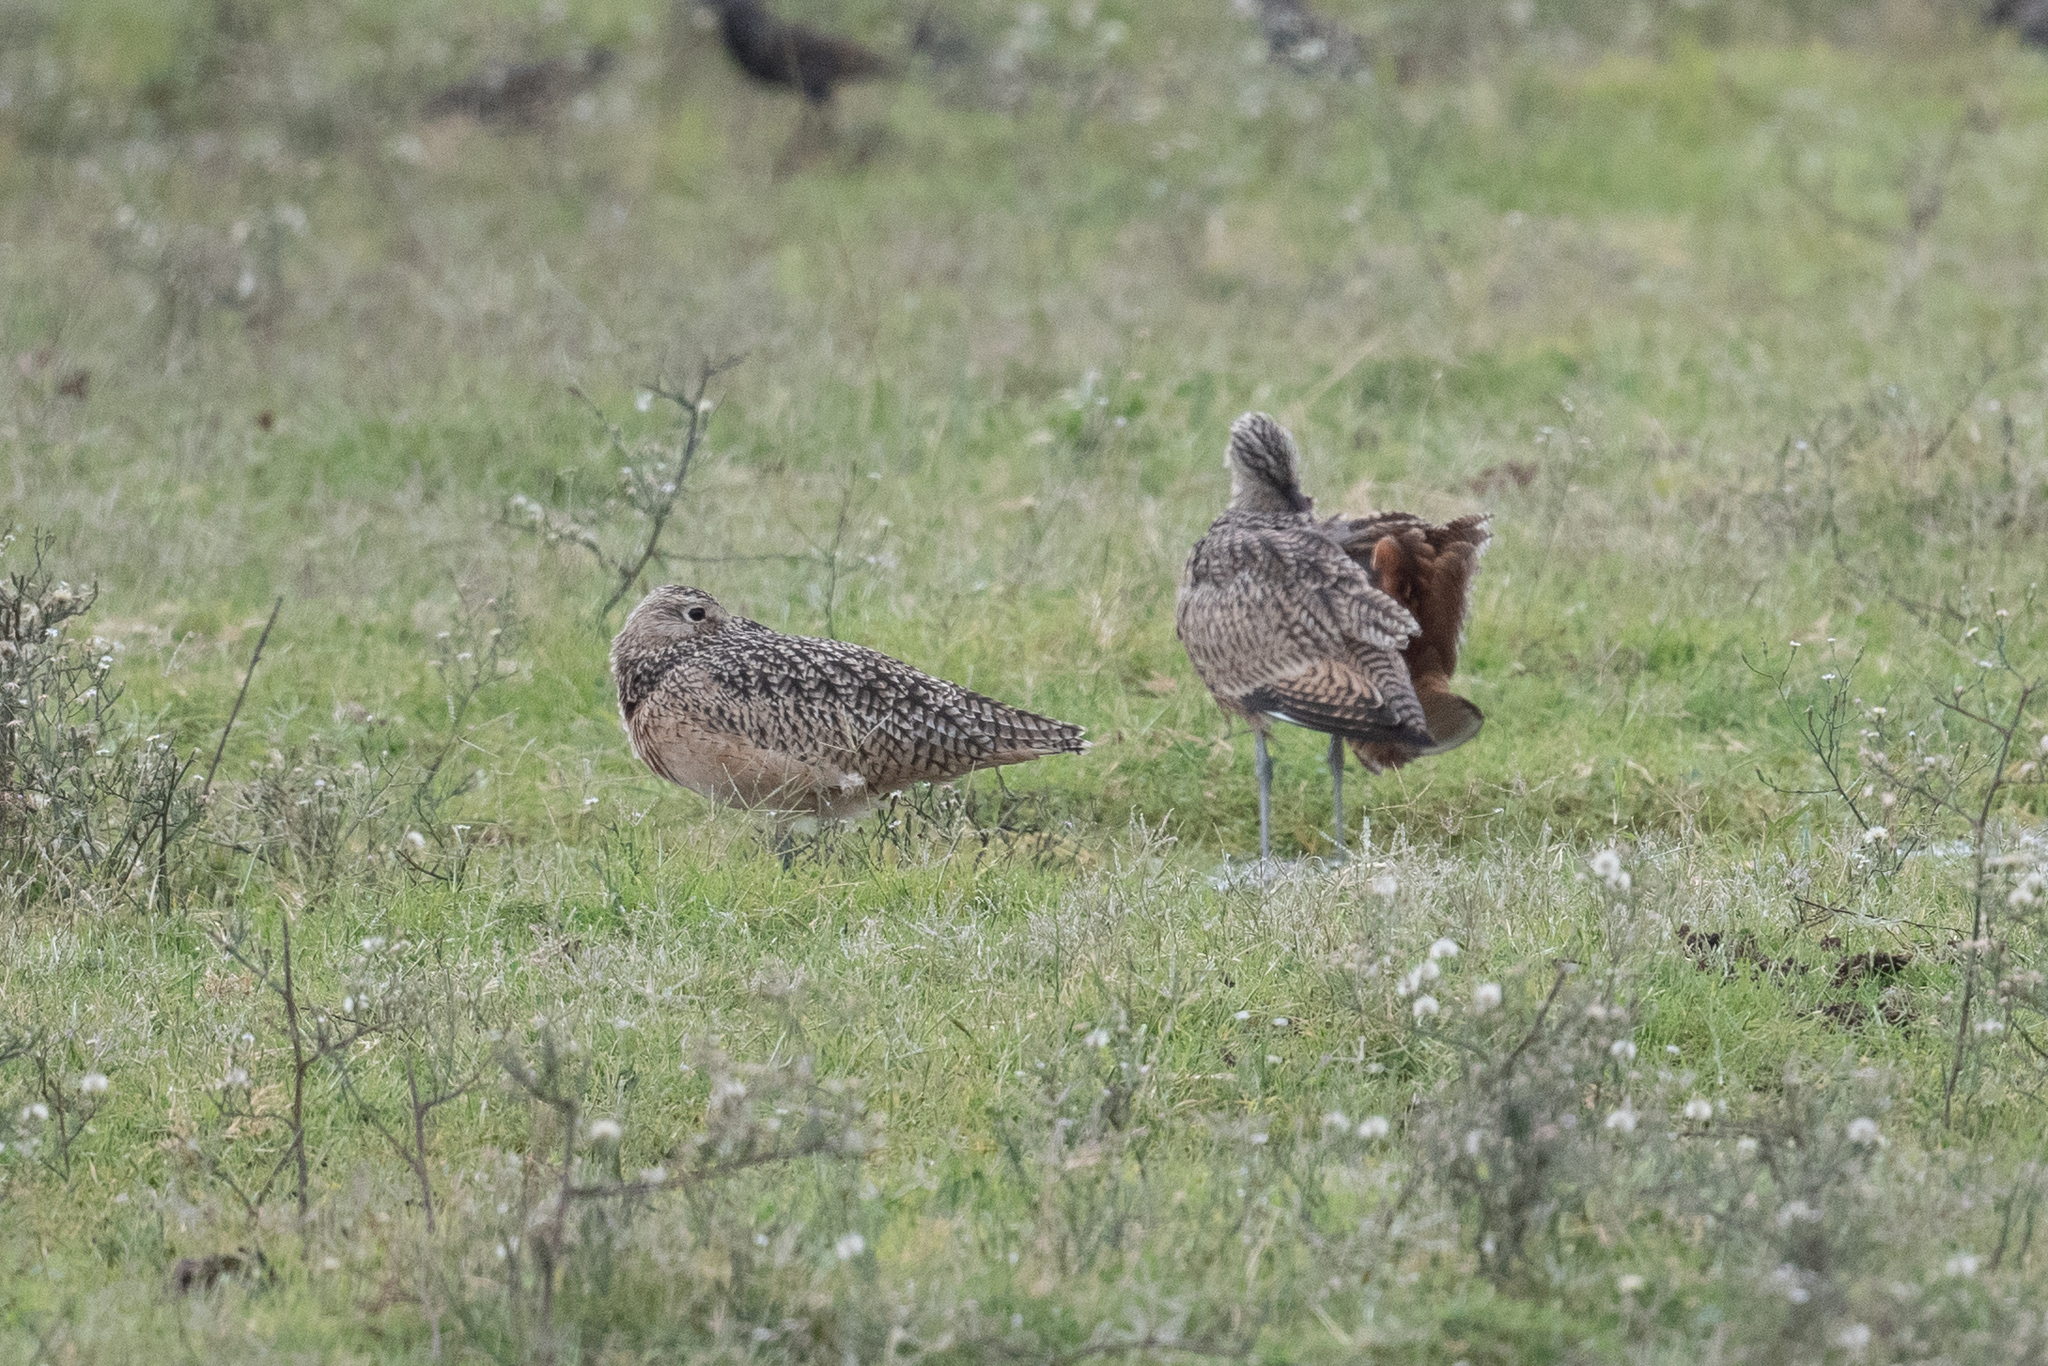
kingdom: Animalia
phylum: Chordata
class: Aves
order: Charadriiformes
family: Scolopacidae
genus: Numenius
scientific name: Numenius americanus
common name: Long-billed curlew
